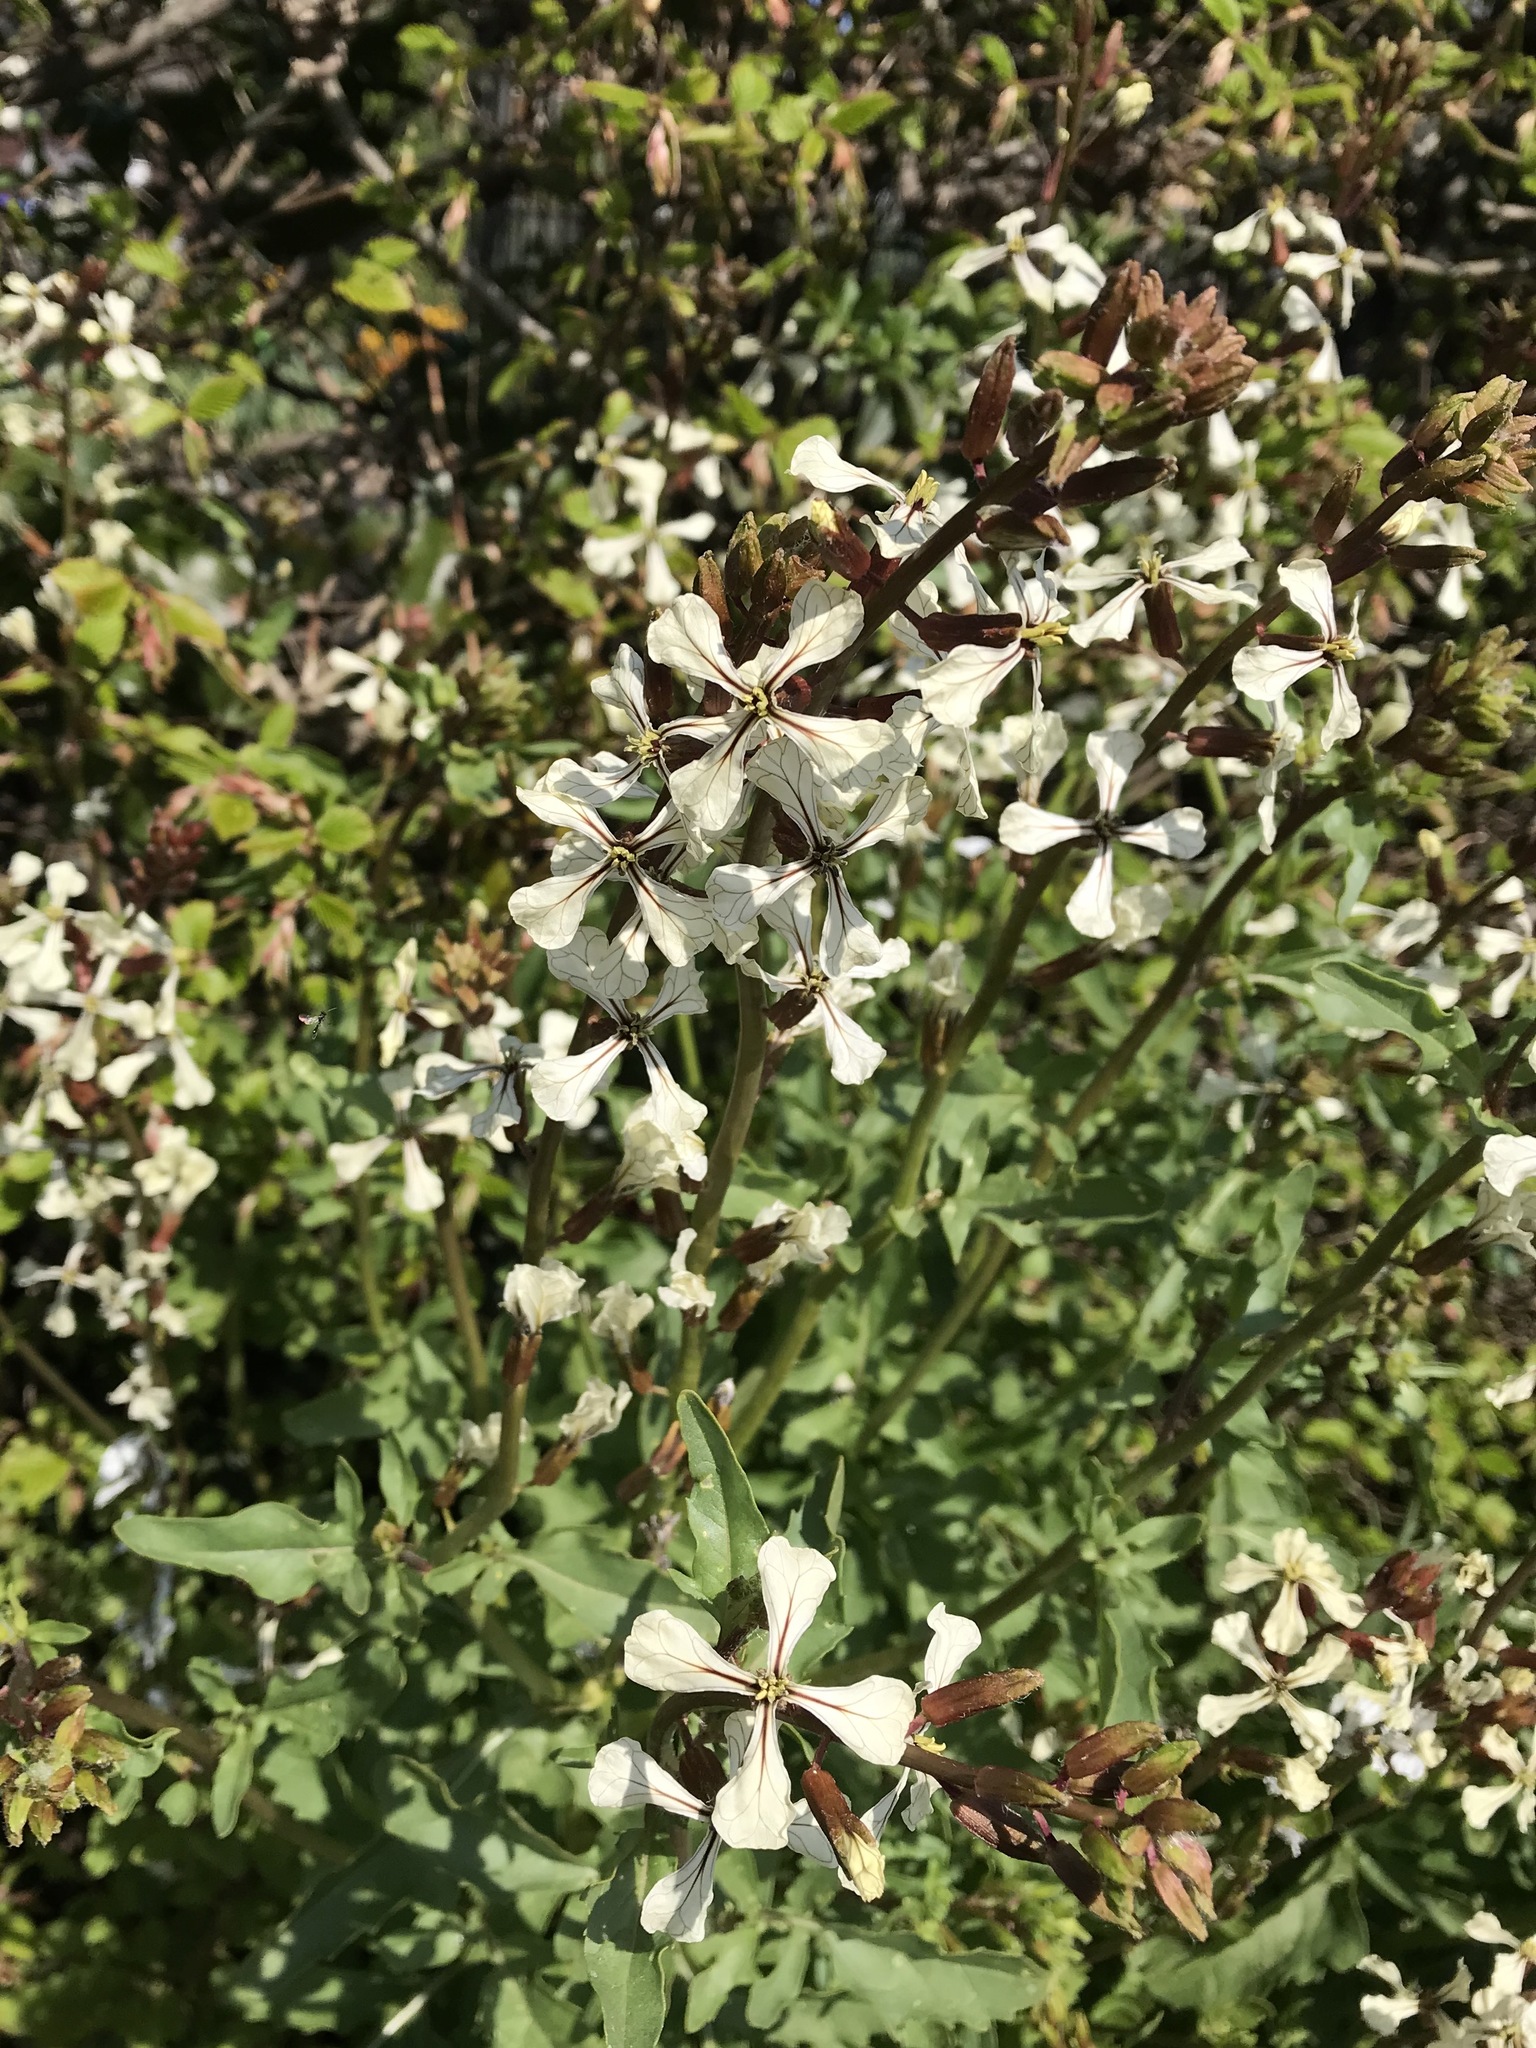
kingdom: Plantae
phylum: Tracheophyta
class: Magnoliopsida
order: Brassicales
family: Brassicaceae
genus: Eruca
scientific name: Eruca vesicaria
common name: Garden rocket
